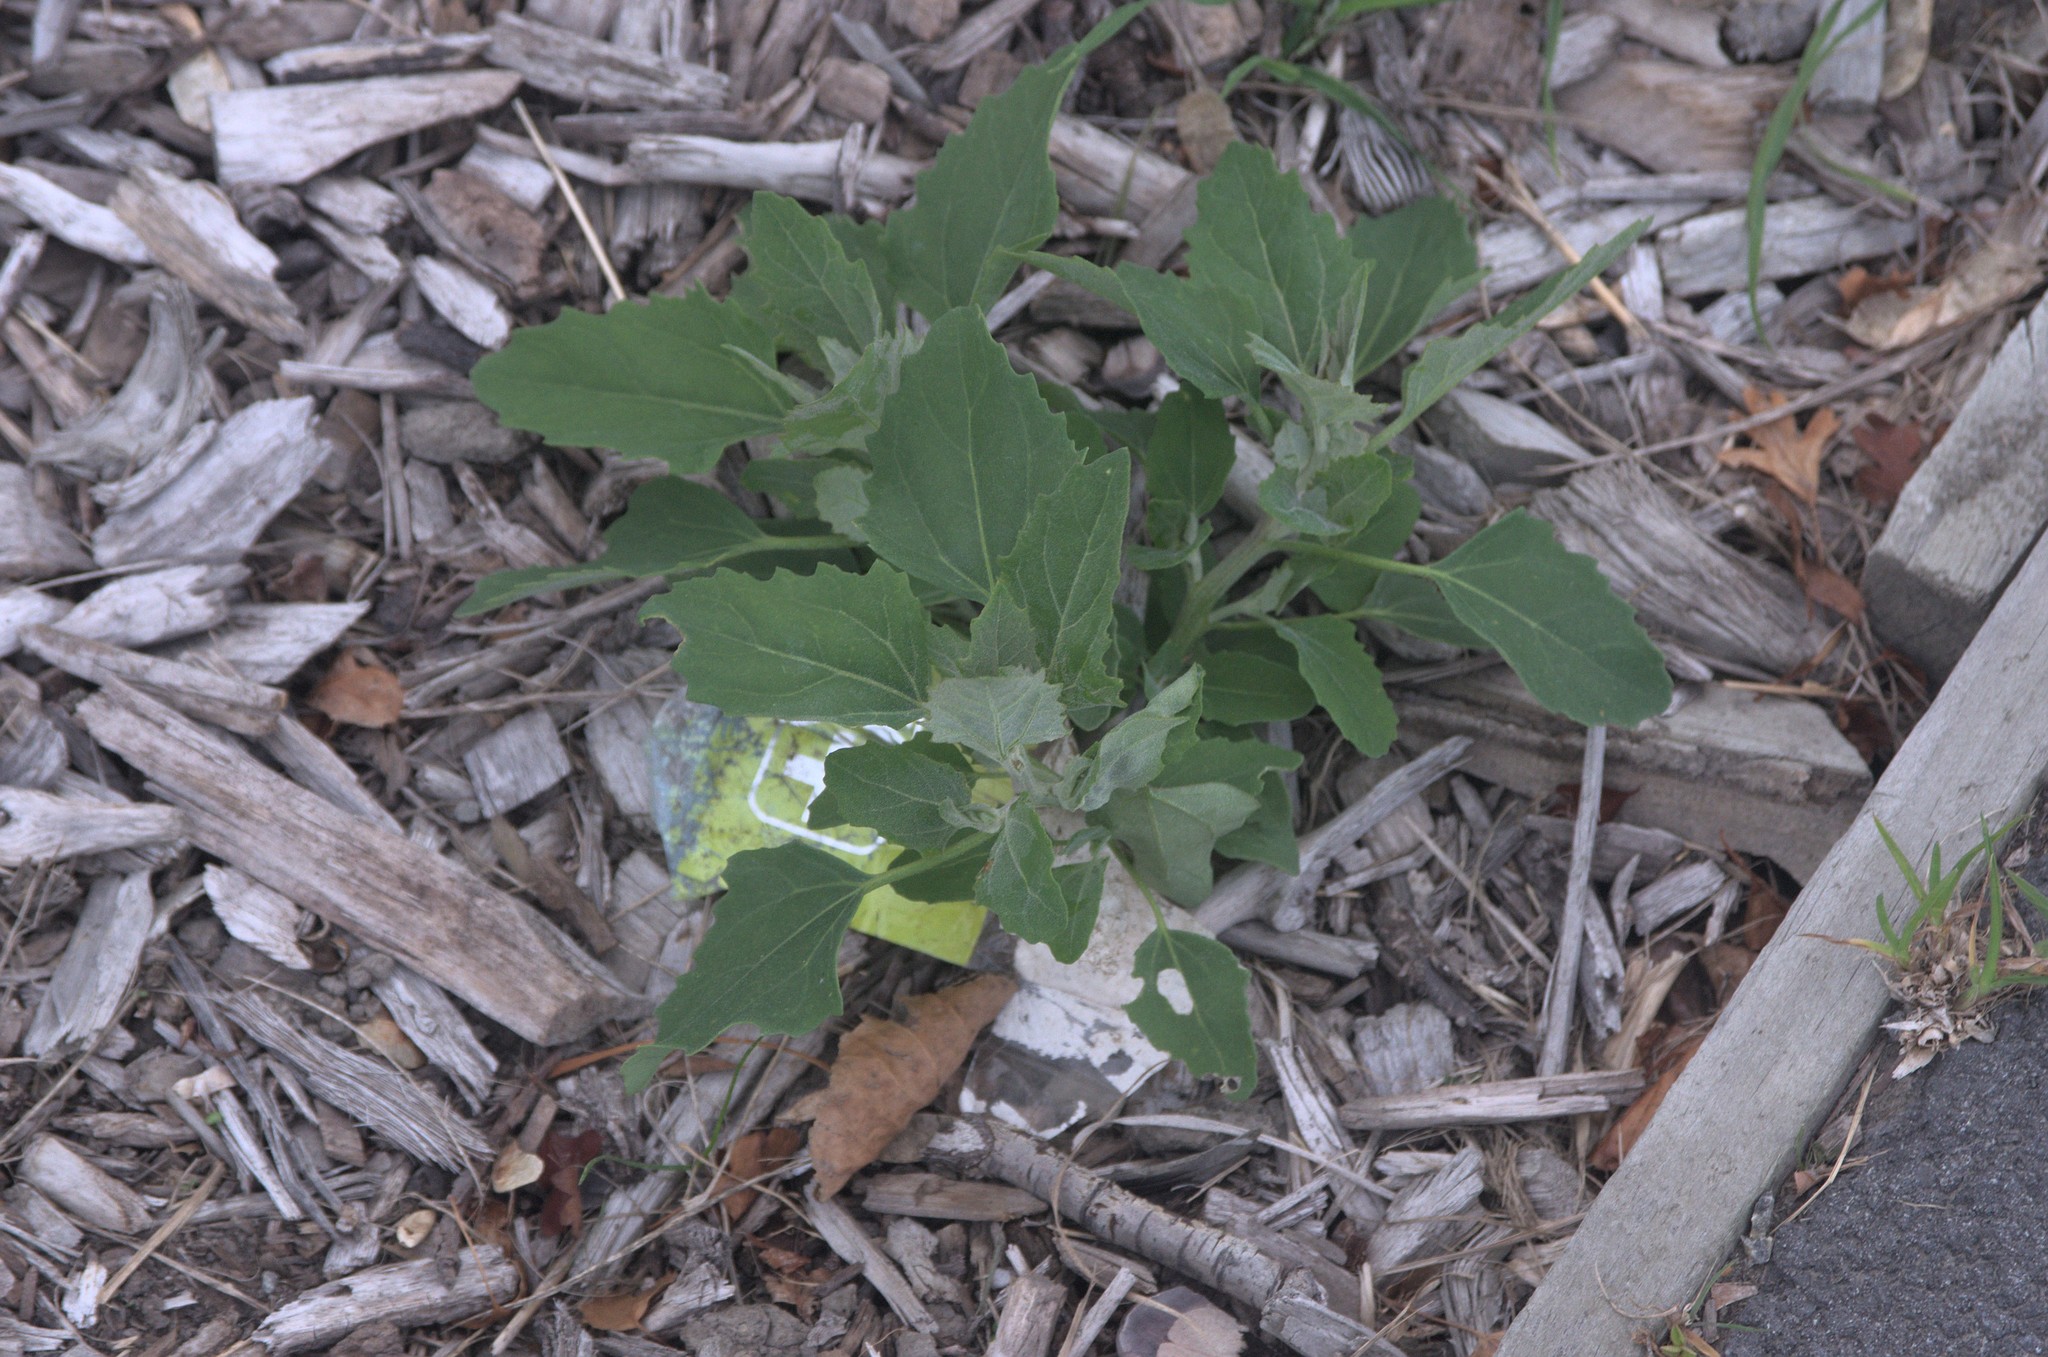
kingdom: Plantae
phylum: Tracheophyta
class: Magnoliopsida
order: Caryophyllales
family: Amaranthaceae
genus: Chenopodium
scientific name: Chenopodium album
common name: Fat-hen
